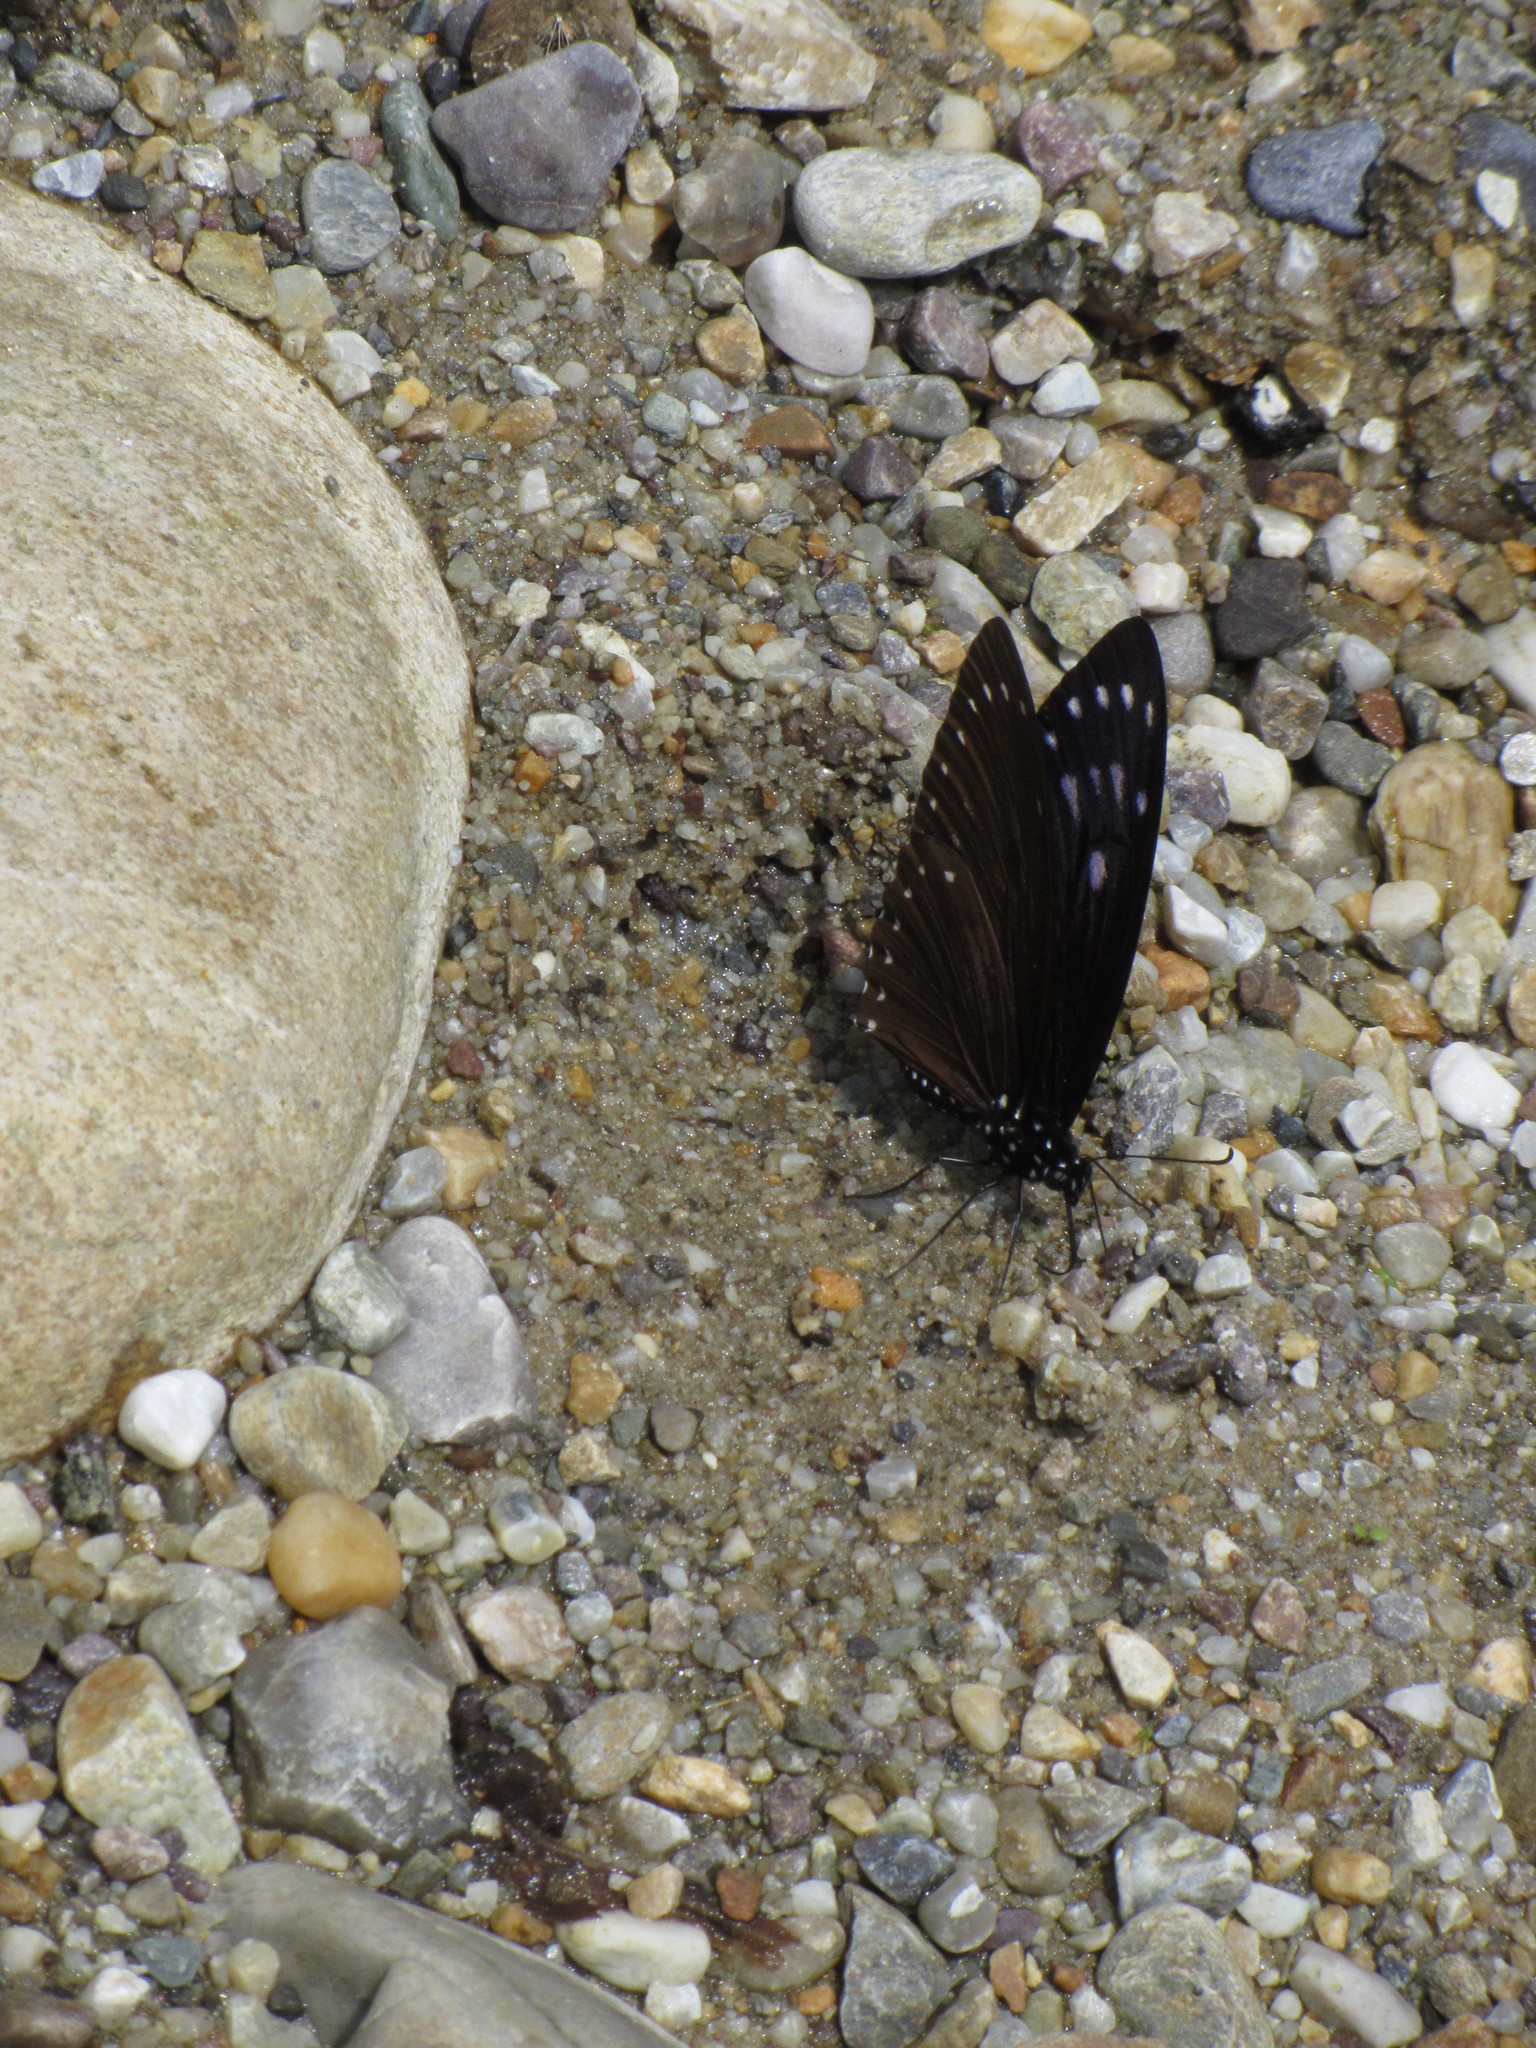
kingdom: Animalia
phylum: Arthropoda
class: Insecta
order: Lepidoptera
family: Papilionidae
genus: Papilio
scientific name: Papilio paradoxa
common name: Great blue mime swallowtail
